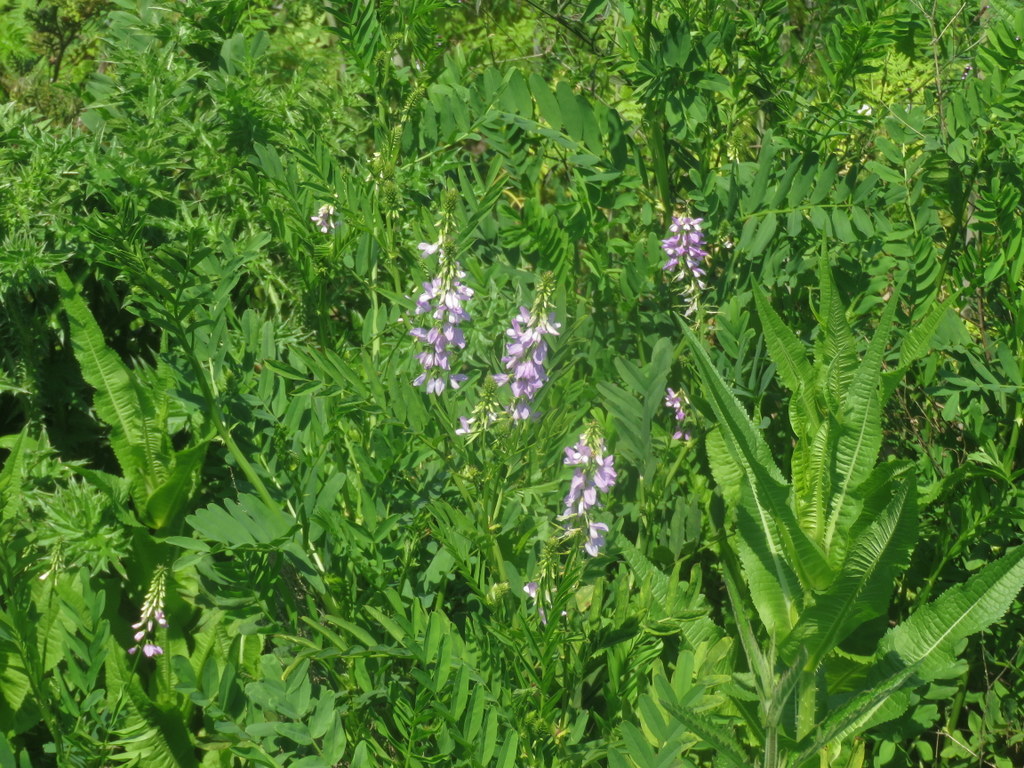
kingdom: Plantae
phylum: Tracheophyta
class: Magnoliopsida
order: Fabales
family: Fabaceae
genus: Galega
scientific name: Galega officinalis
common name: Goat's-rue
